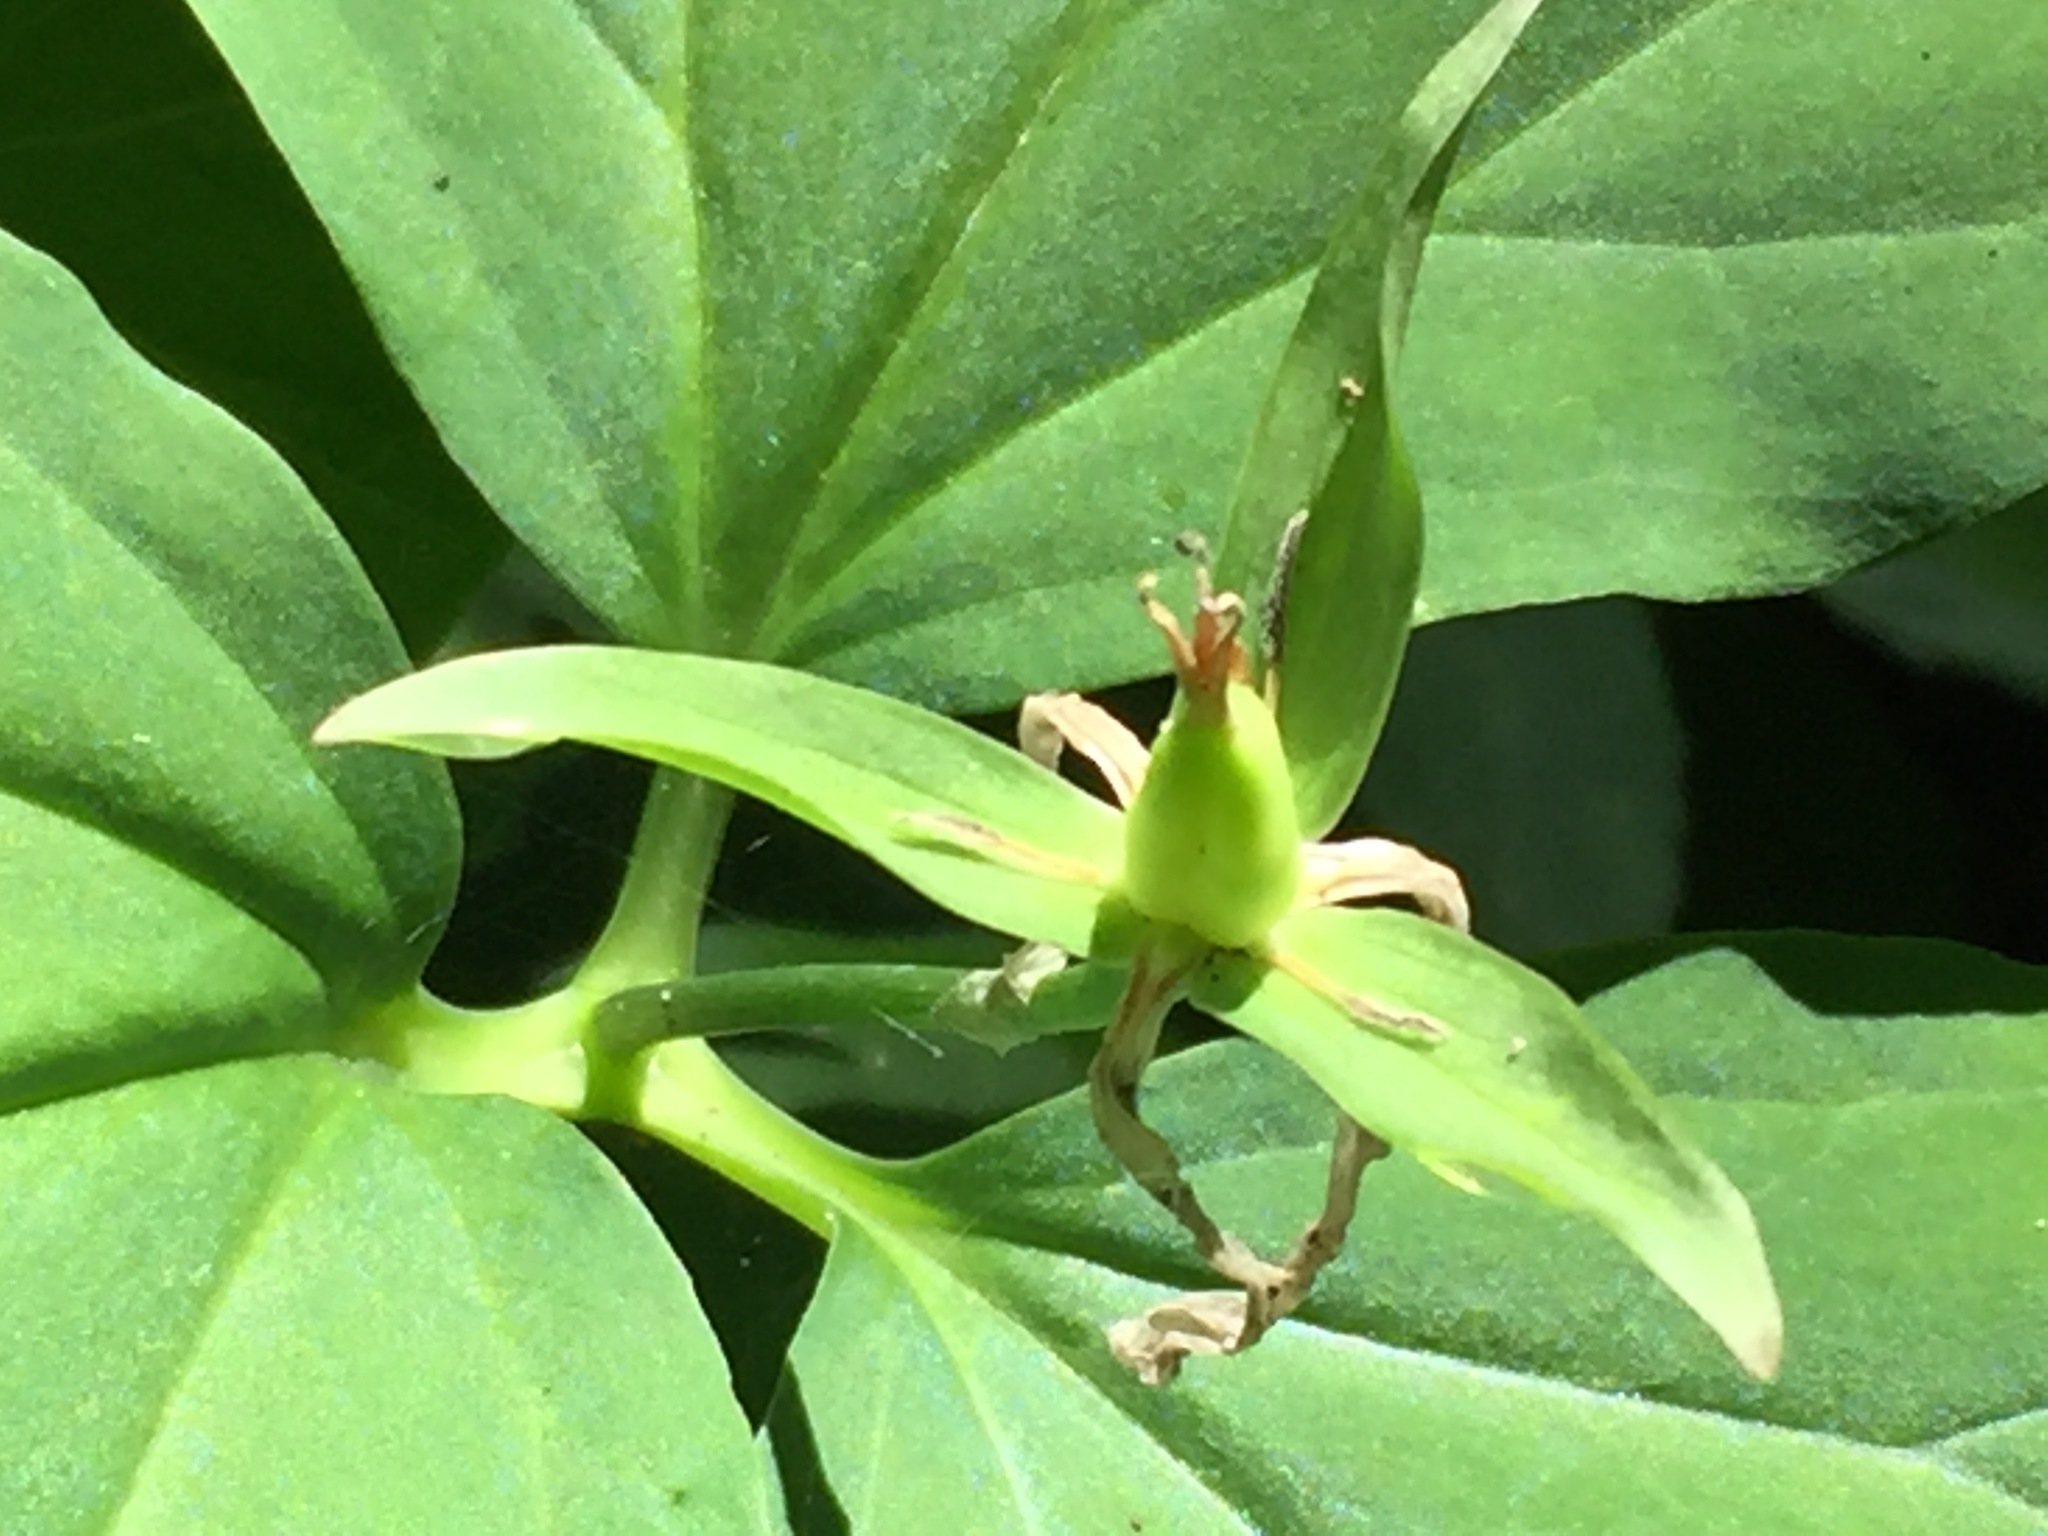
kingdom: Plantae
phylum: Tracheophyta
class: Liliopsida
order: Liliales
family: Melanthiaceae
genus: Trillium
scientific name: Trillium undulatum
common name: Paint trillium
